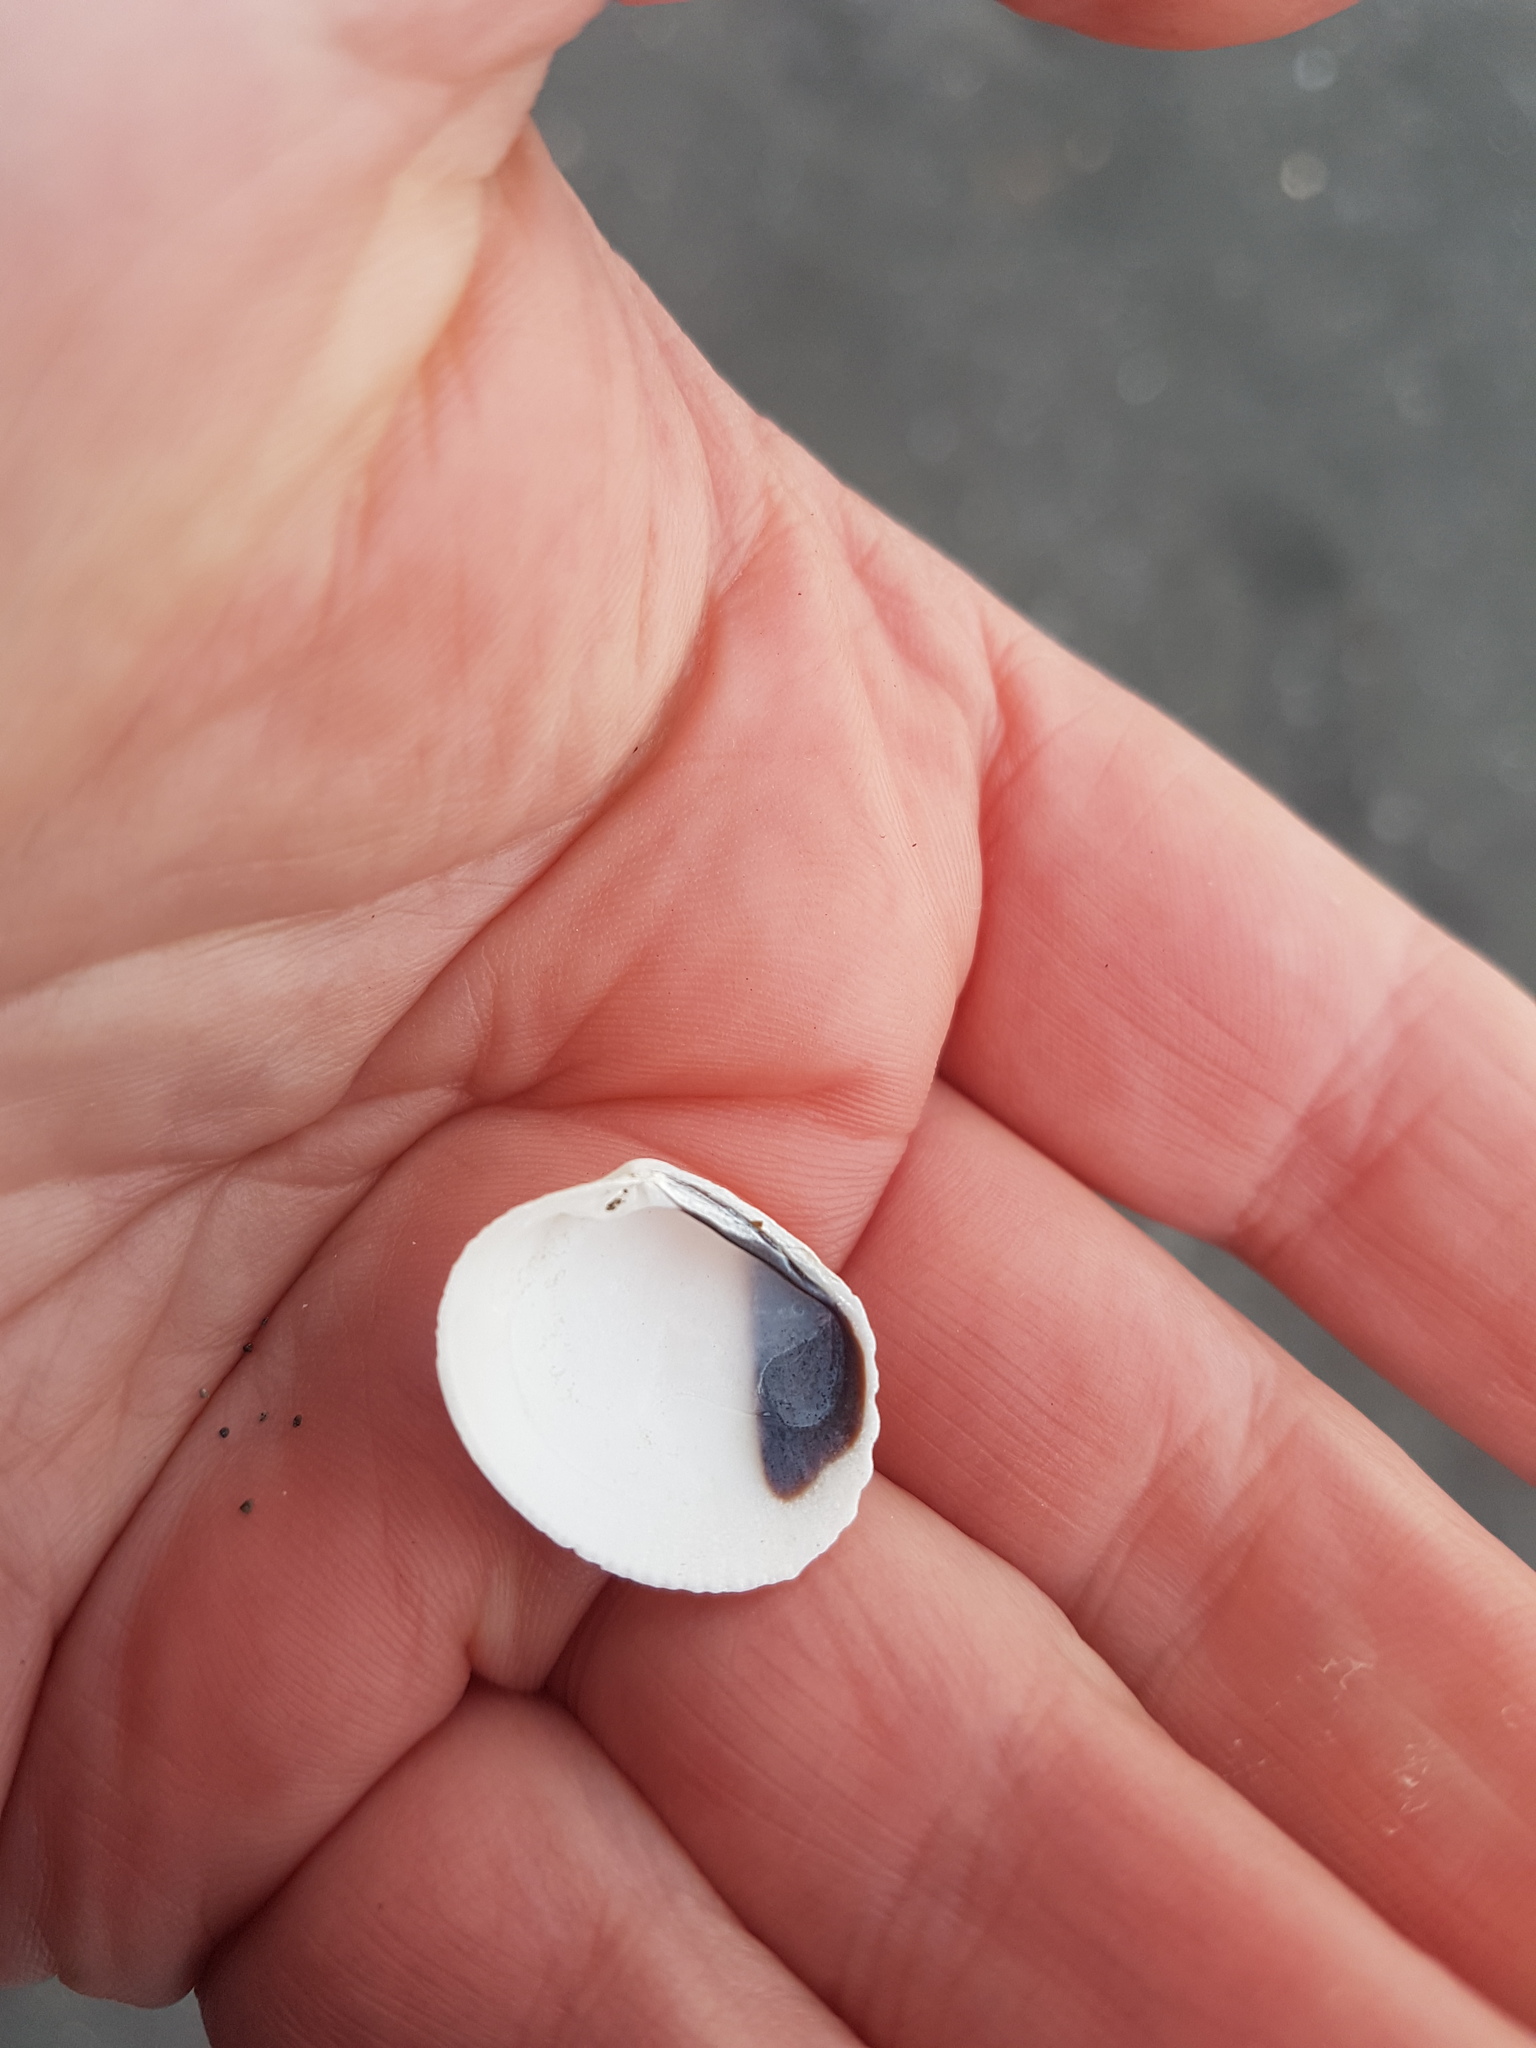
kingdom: Animalia
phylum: Mollusca
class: Bivalvia
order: Venerida
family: Veneridae
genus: Leukoma
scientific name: Leukoma crassicosta
